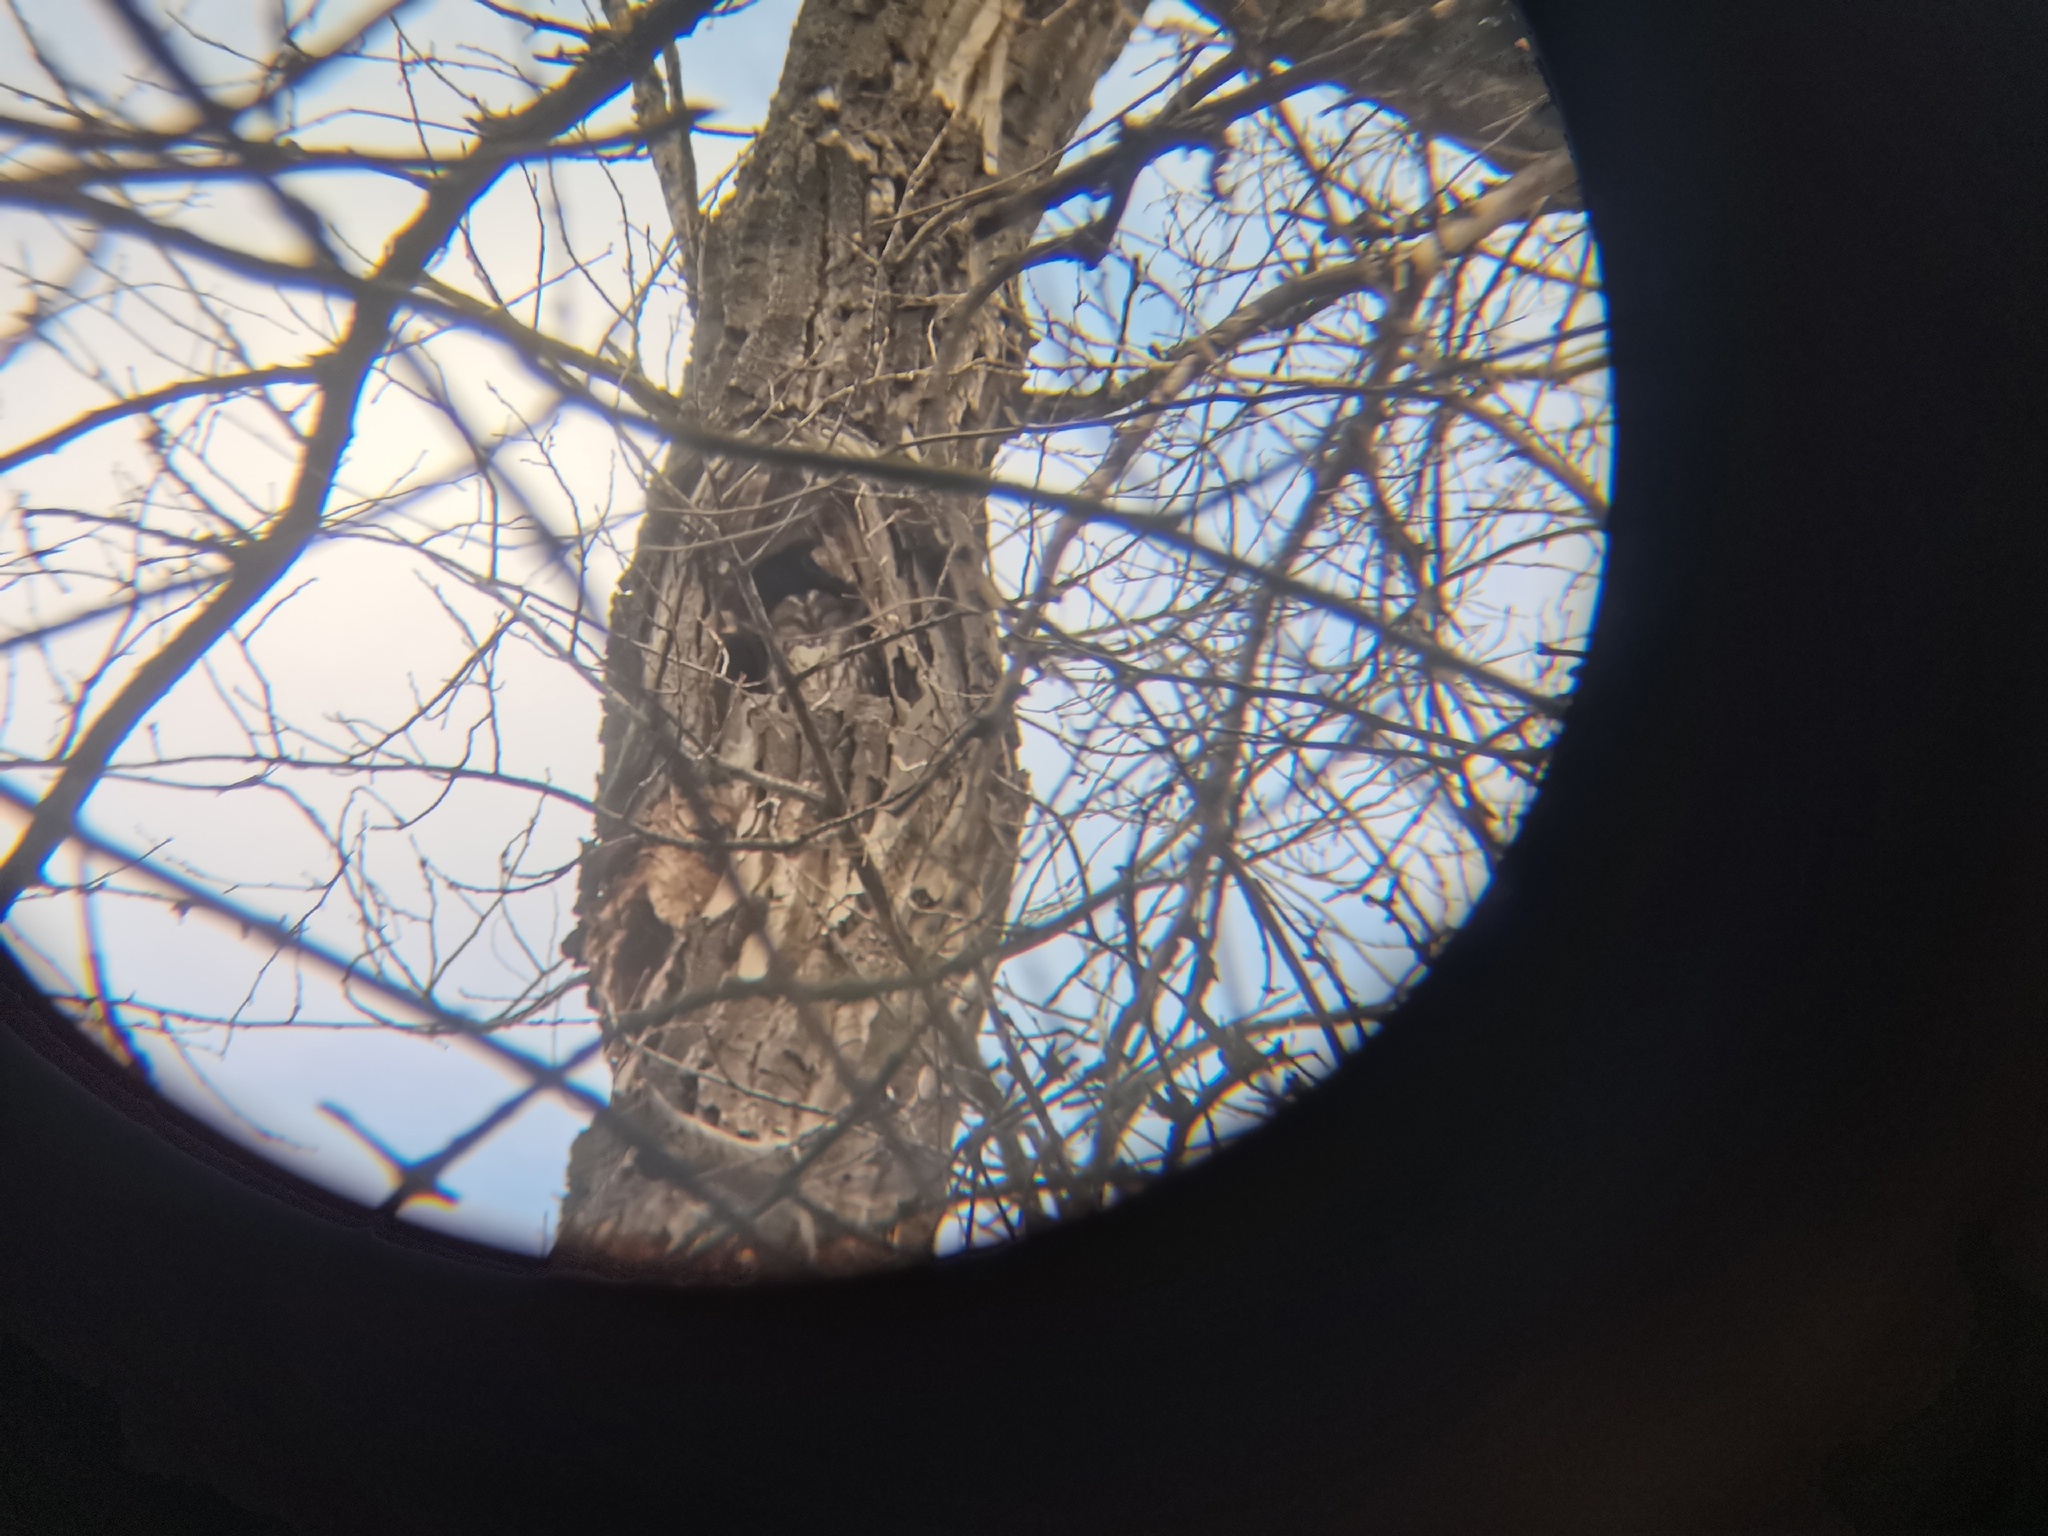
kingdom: Animalia
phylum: Chordata
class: Aves
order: Strigiformes
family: Strigidae
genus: Strix
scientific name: Strix aluco
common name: Tawny owl
